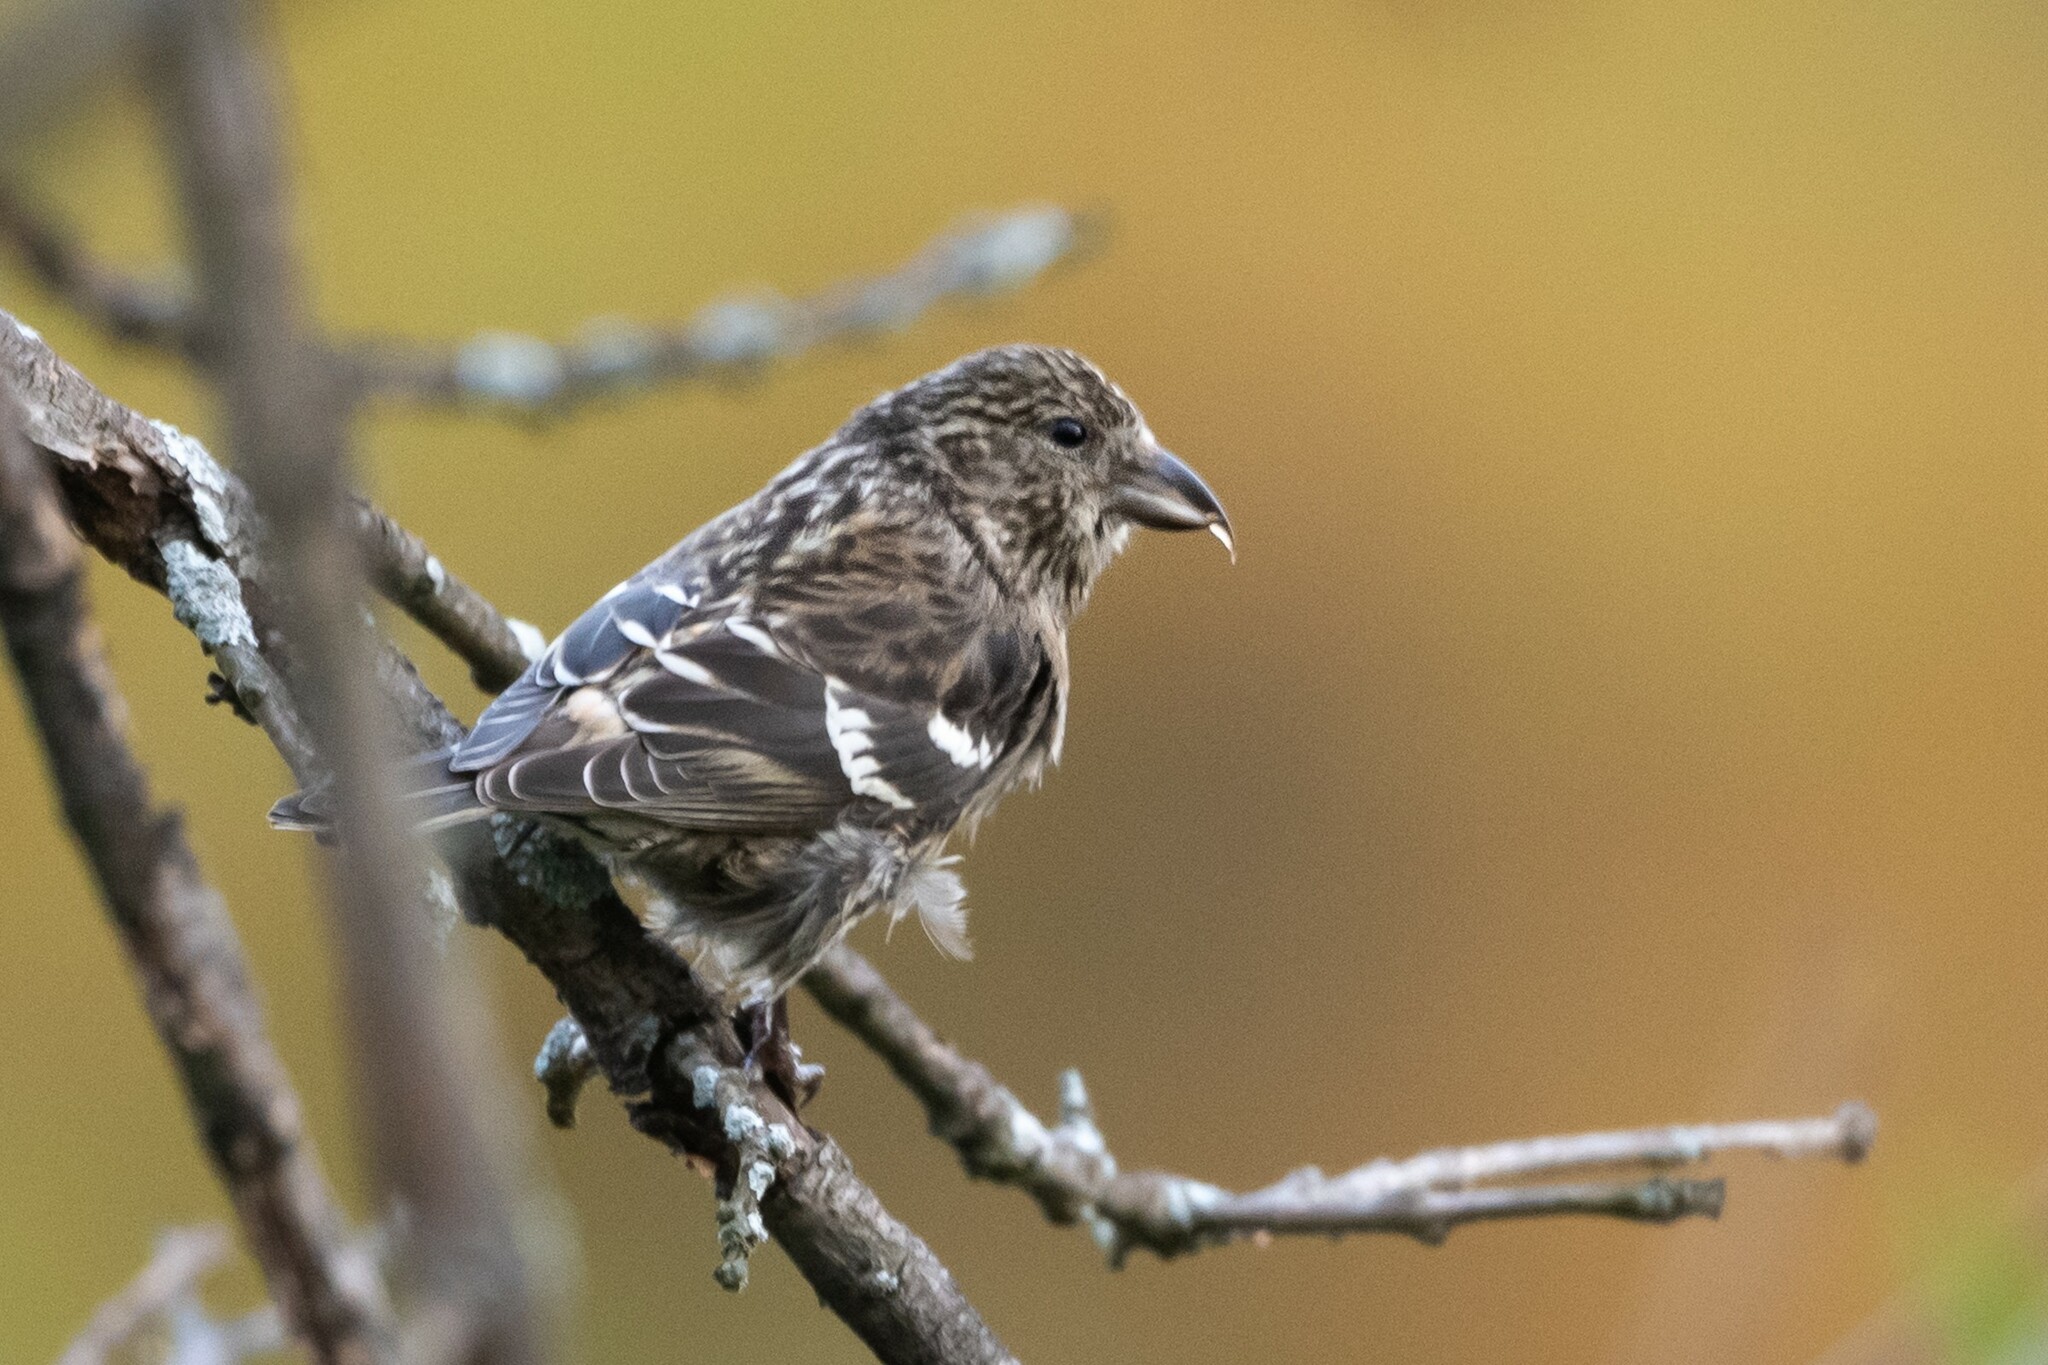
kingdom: Animalia
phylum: Chordata
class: Aves
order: Passeriformes
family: Fringillidae
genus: Loxia
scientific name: Loxia leucoptera
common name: Two-barred crossbill
